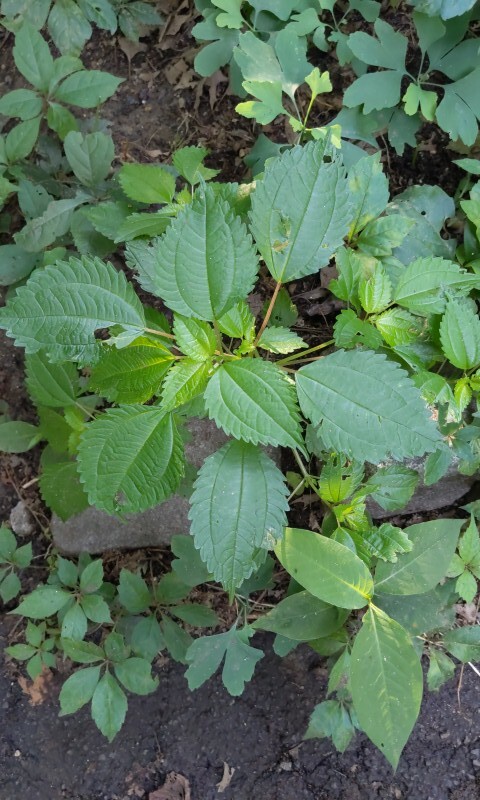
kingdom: Plantae
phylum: Tracheophyta
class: Magnoliopsida
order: Rosales
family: Urticaceae
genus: Pilea
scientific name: Pilea
